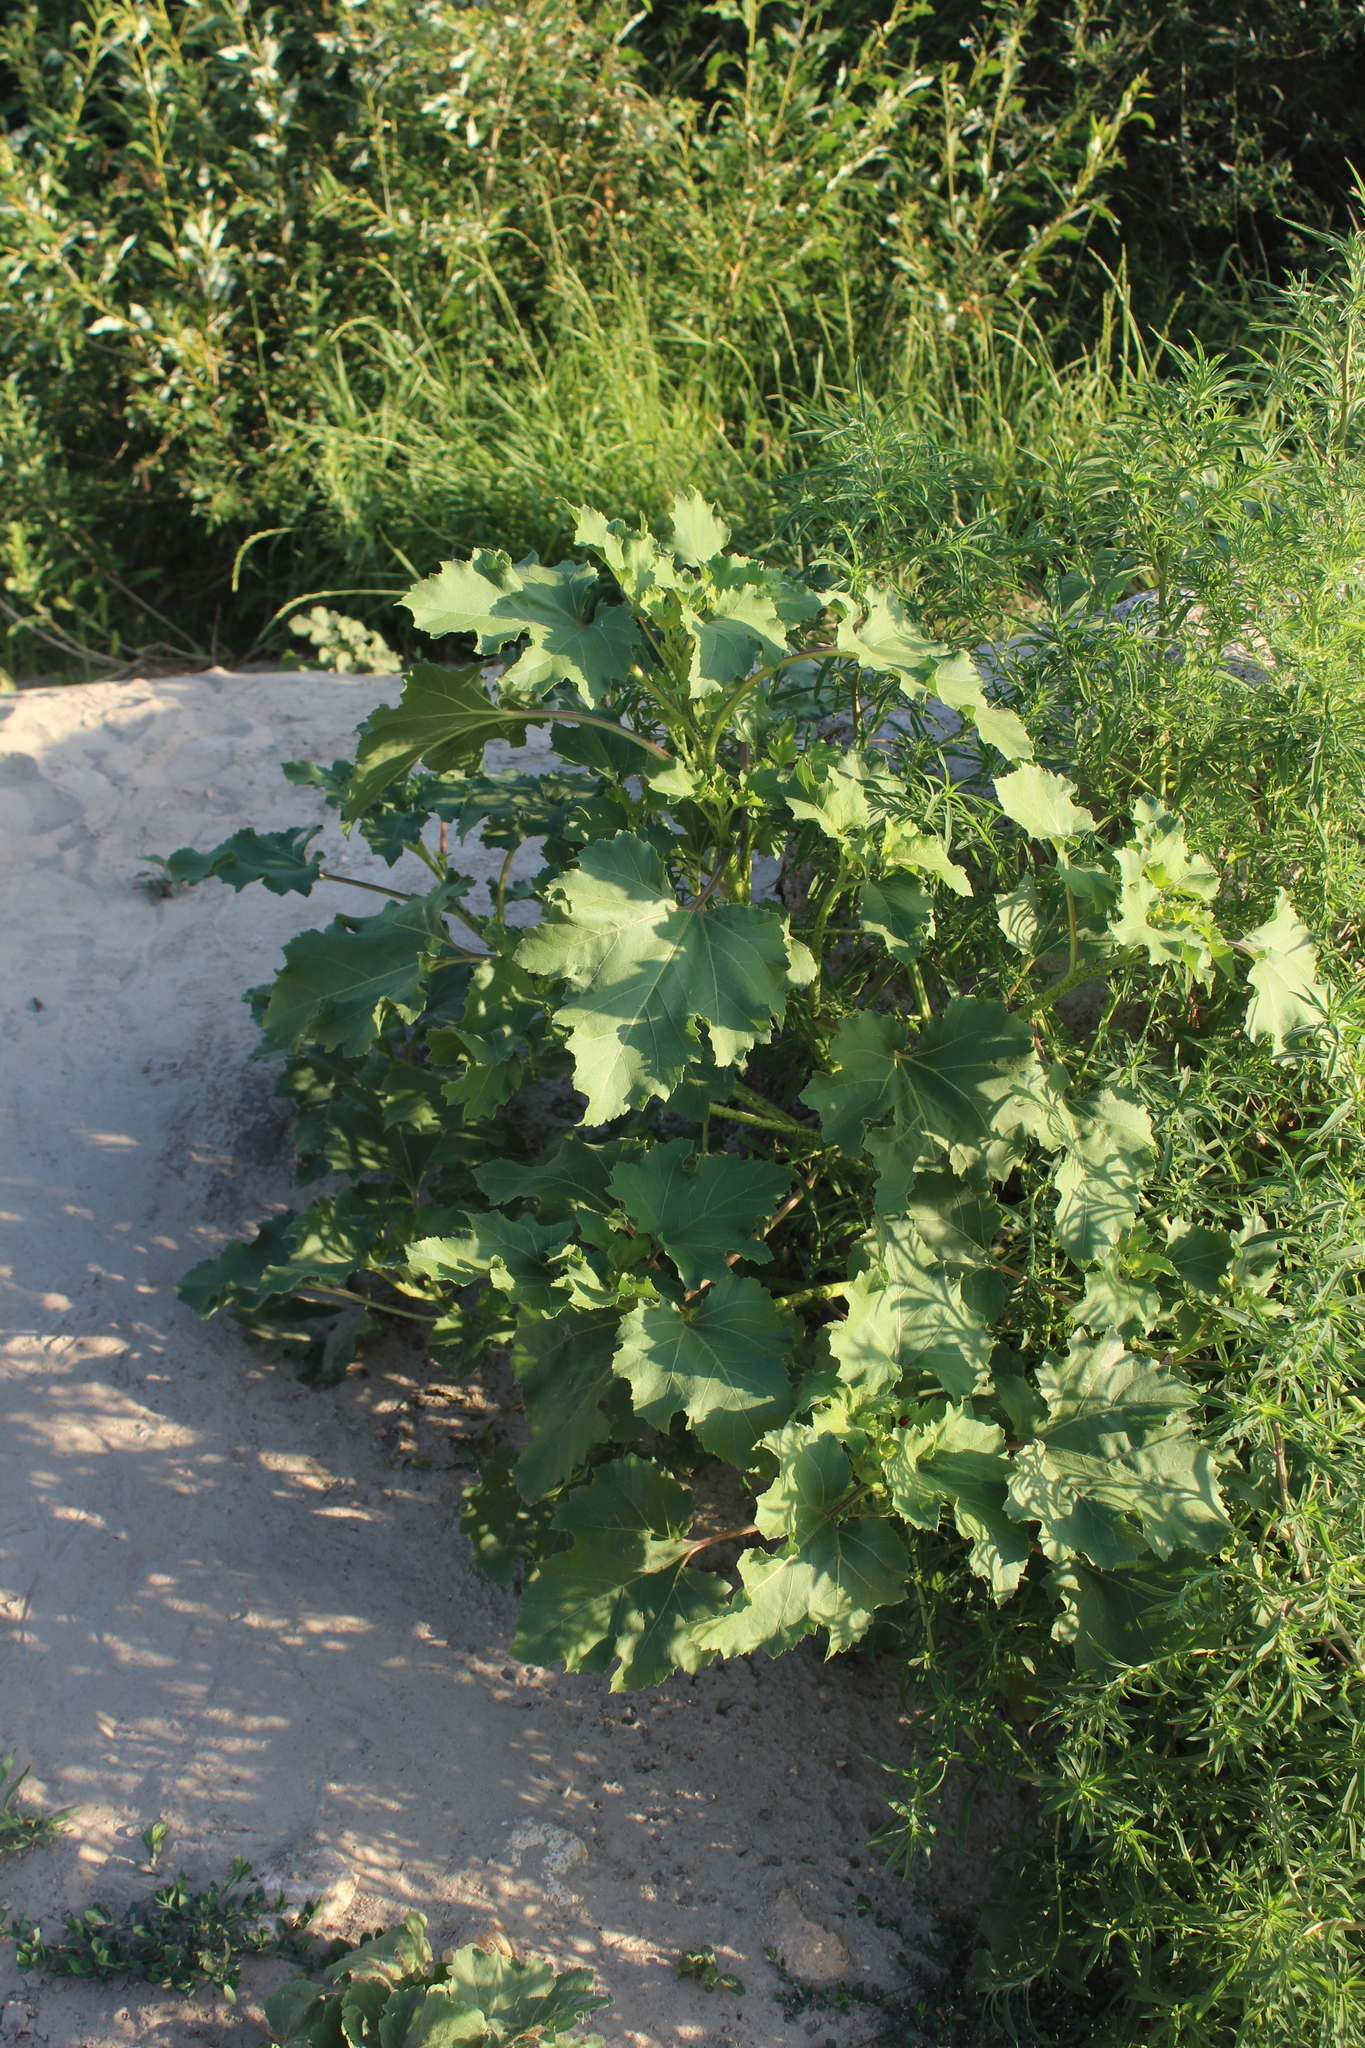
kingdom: Plantae
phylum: Tracheophyta
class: Magnoliopsida
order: Asterales
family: Asteraceae
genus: Xanthium
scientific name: Xanthium orientale
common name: Californian burr
